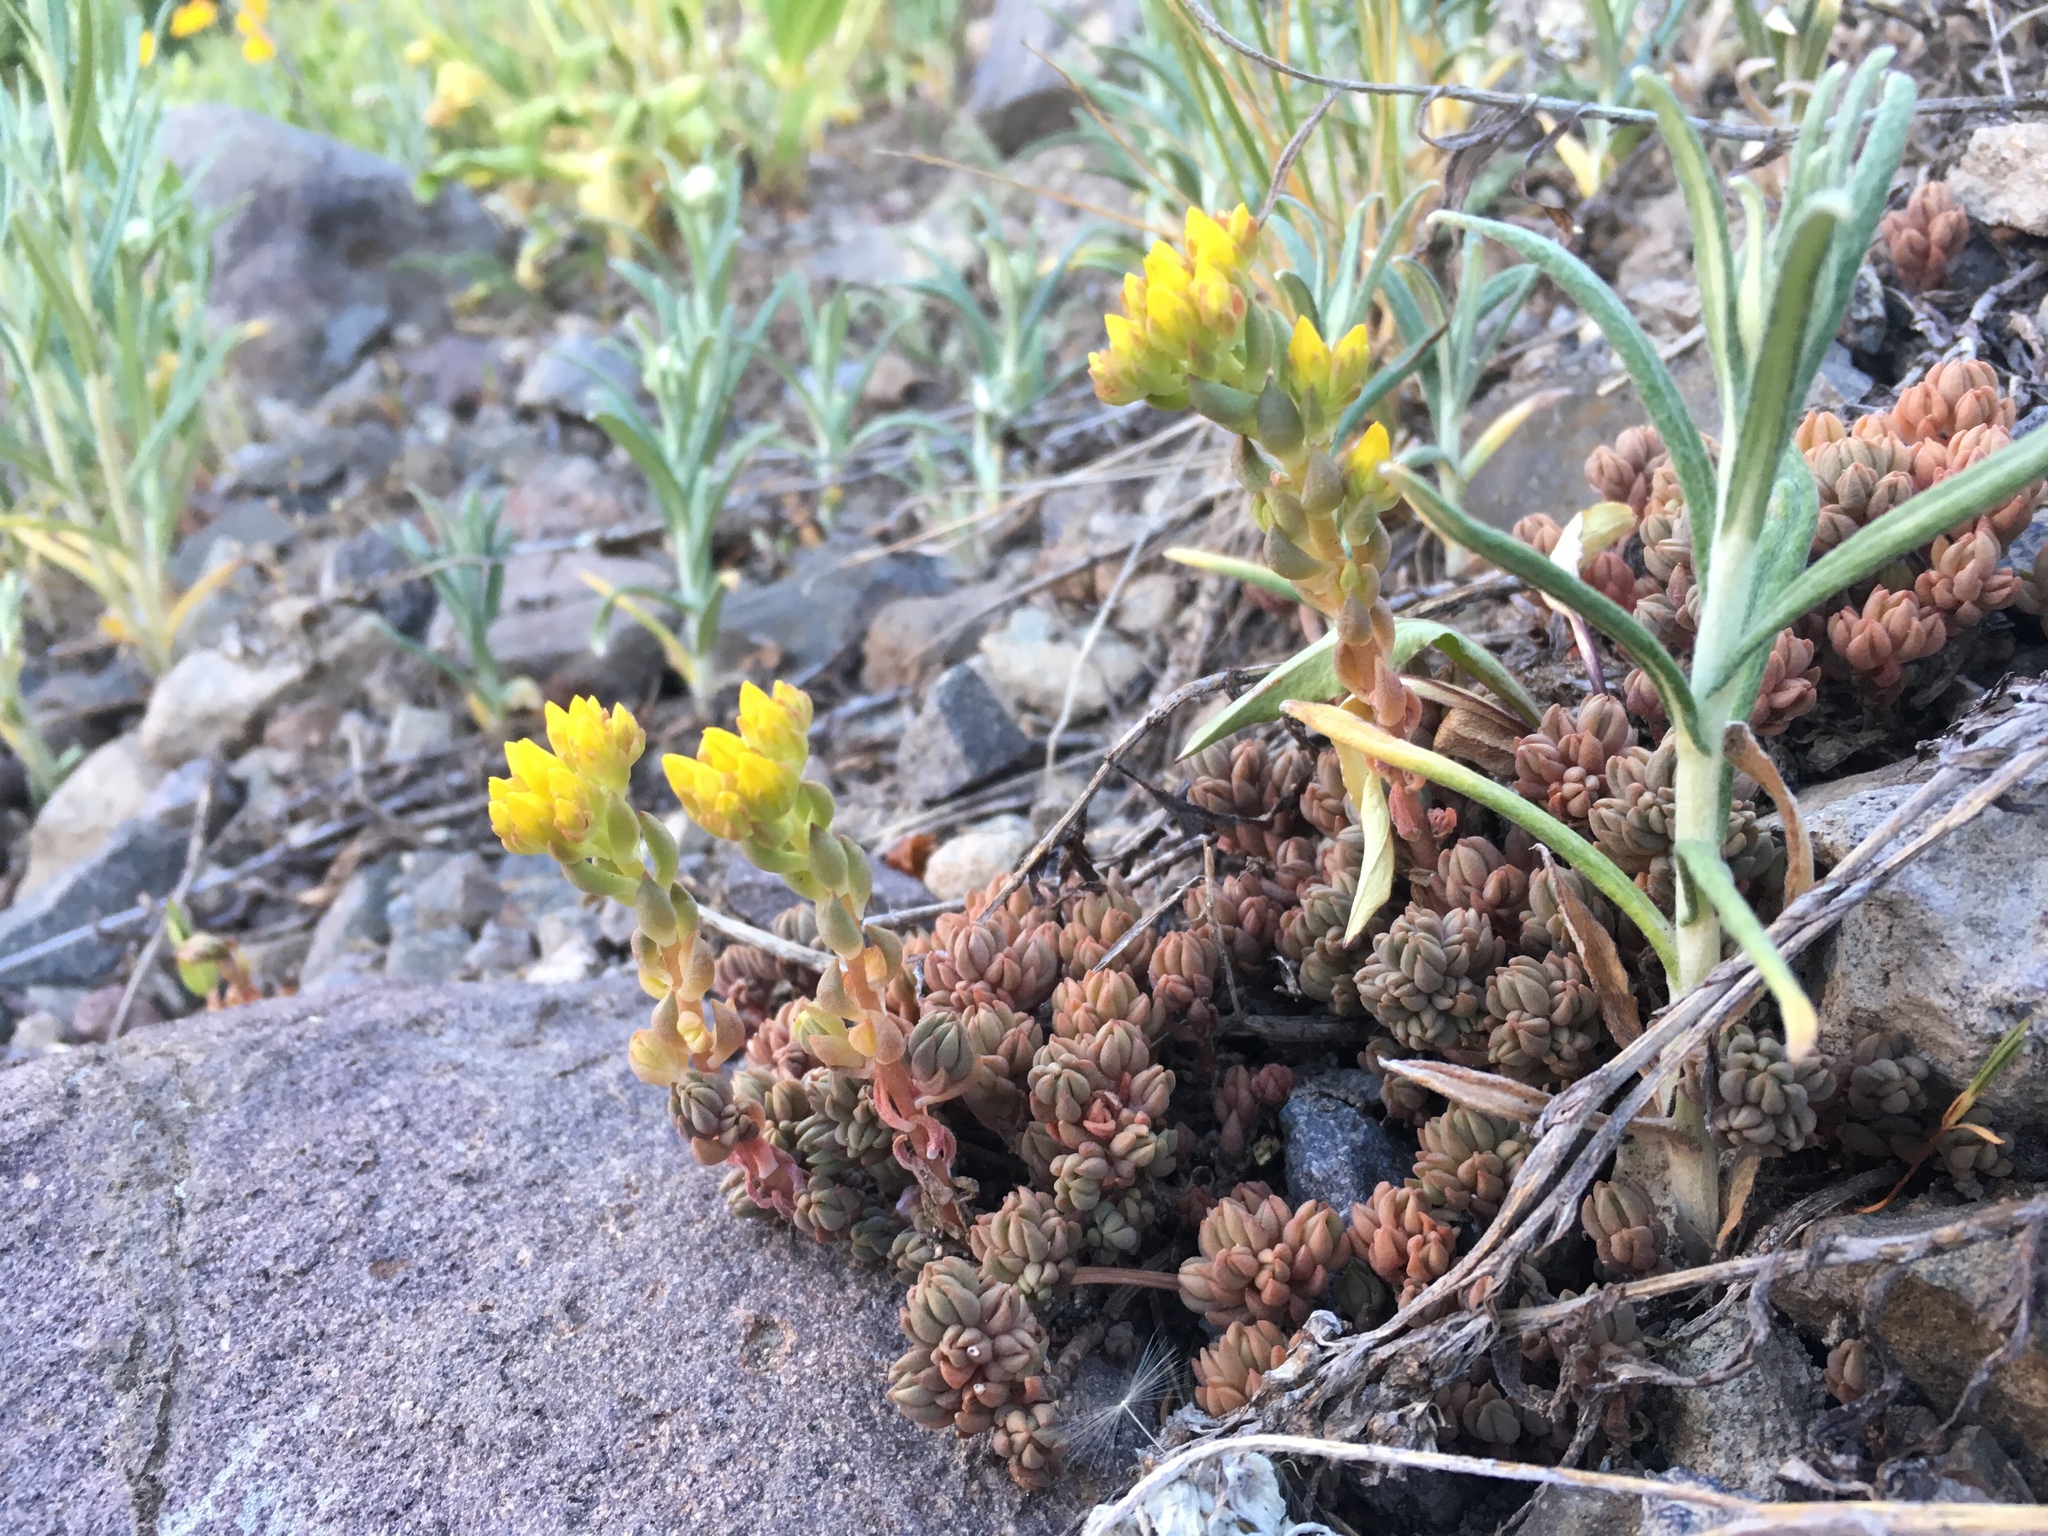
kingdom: Plantae
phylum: Tracheophyta
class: Magnoliopsida
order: Saxifragales
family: Crassulaceae
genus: Sedum
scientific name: Sedum lanceolatum
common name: Common stonecrop
